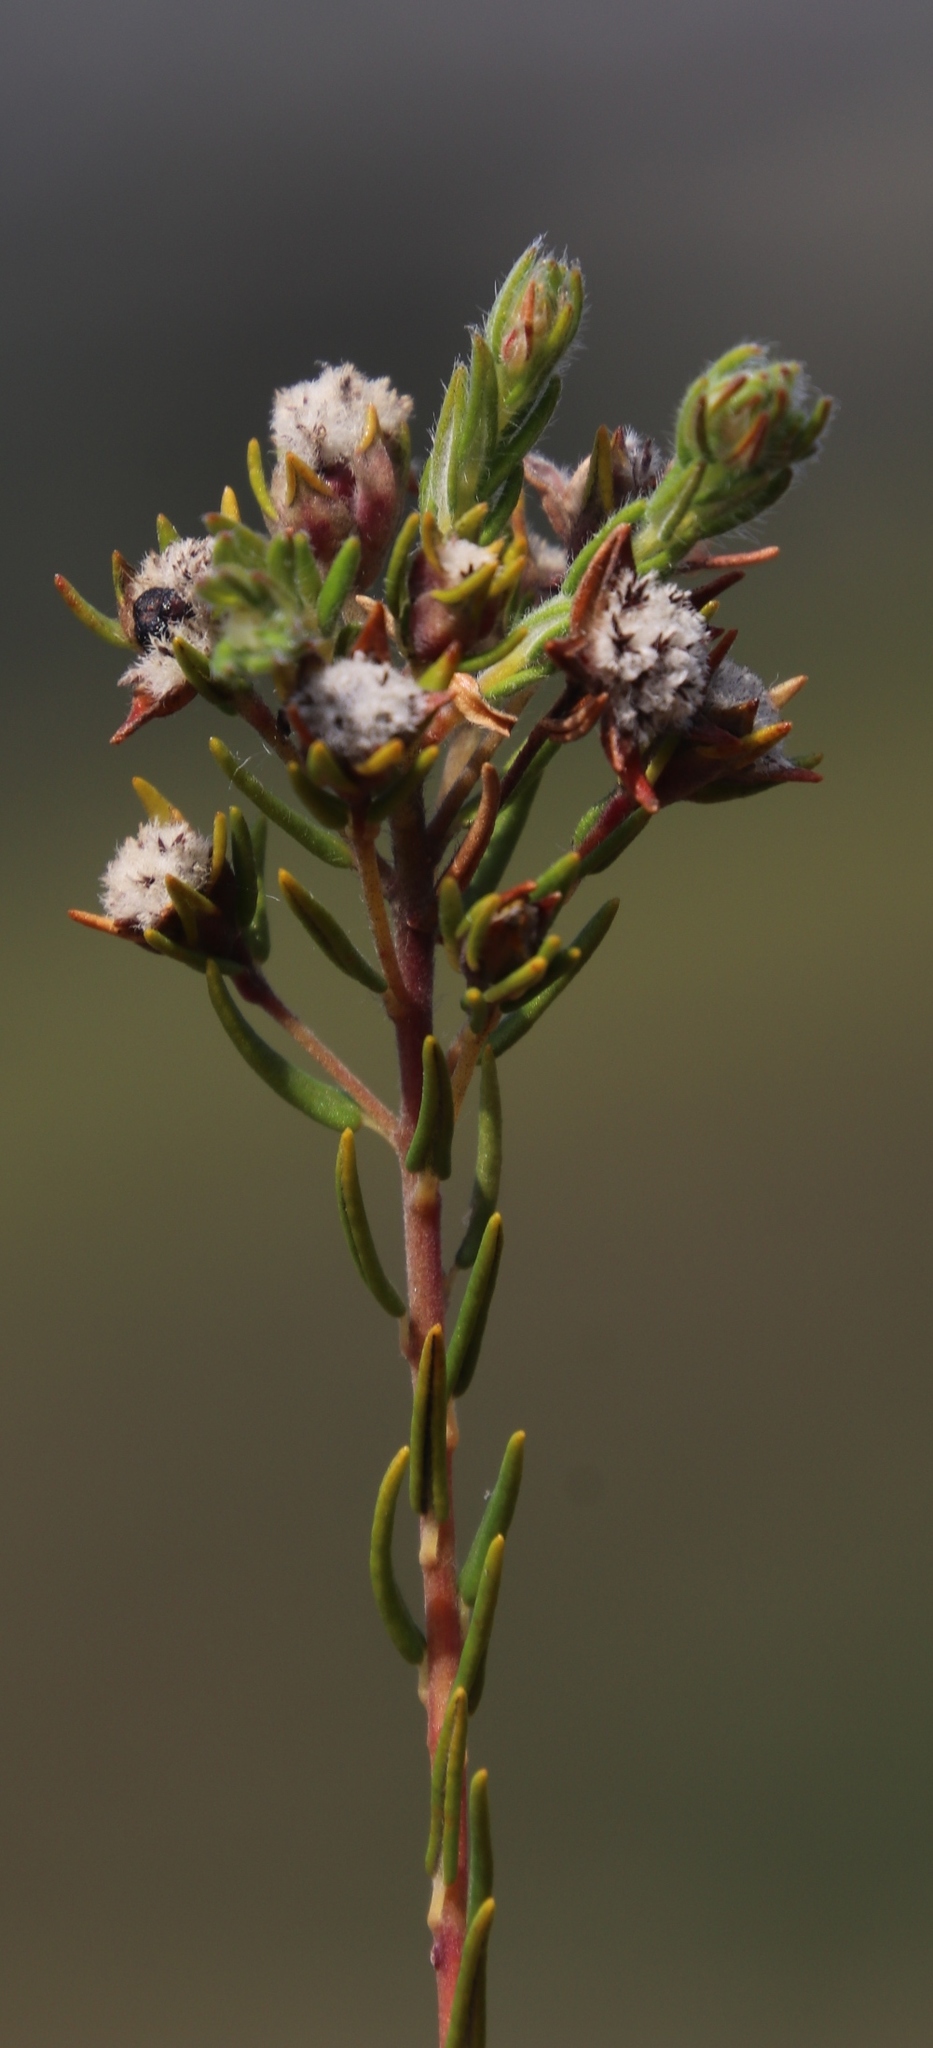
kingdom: Plantae
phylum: Tracheophyta
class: Magnoliopsida
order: Rosales
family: Rhamnaceae
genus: Phylica
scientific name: Phylica virgata
